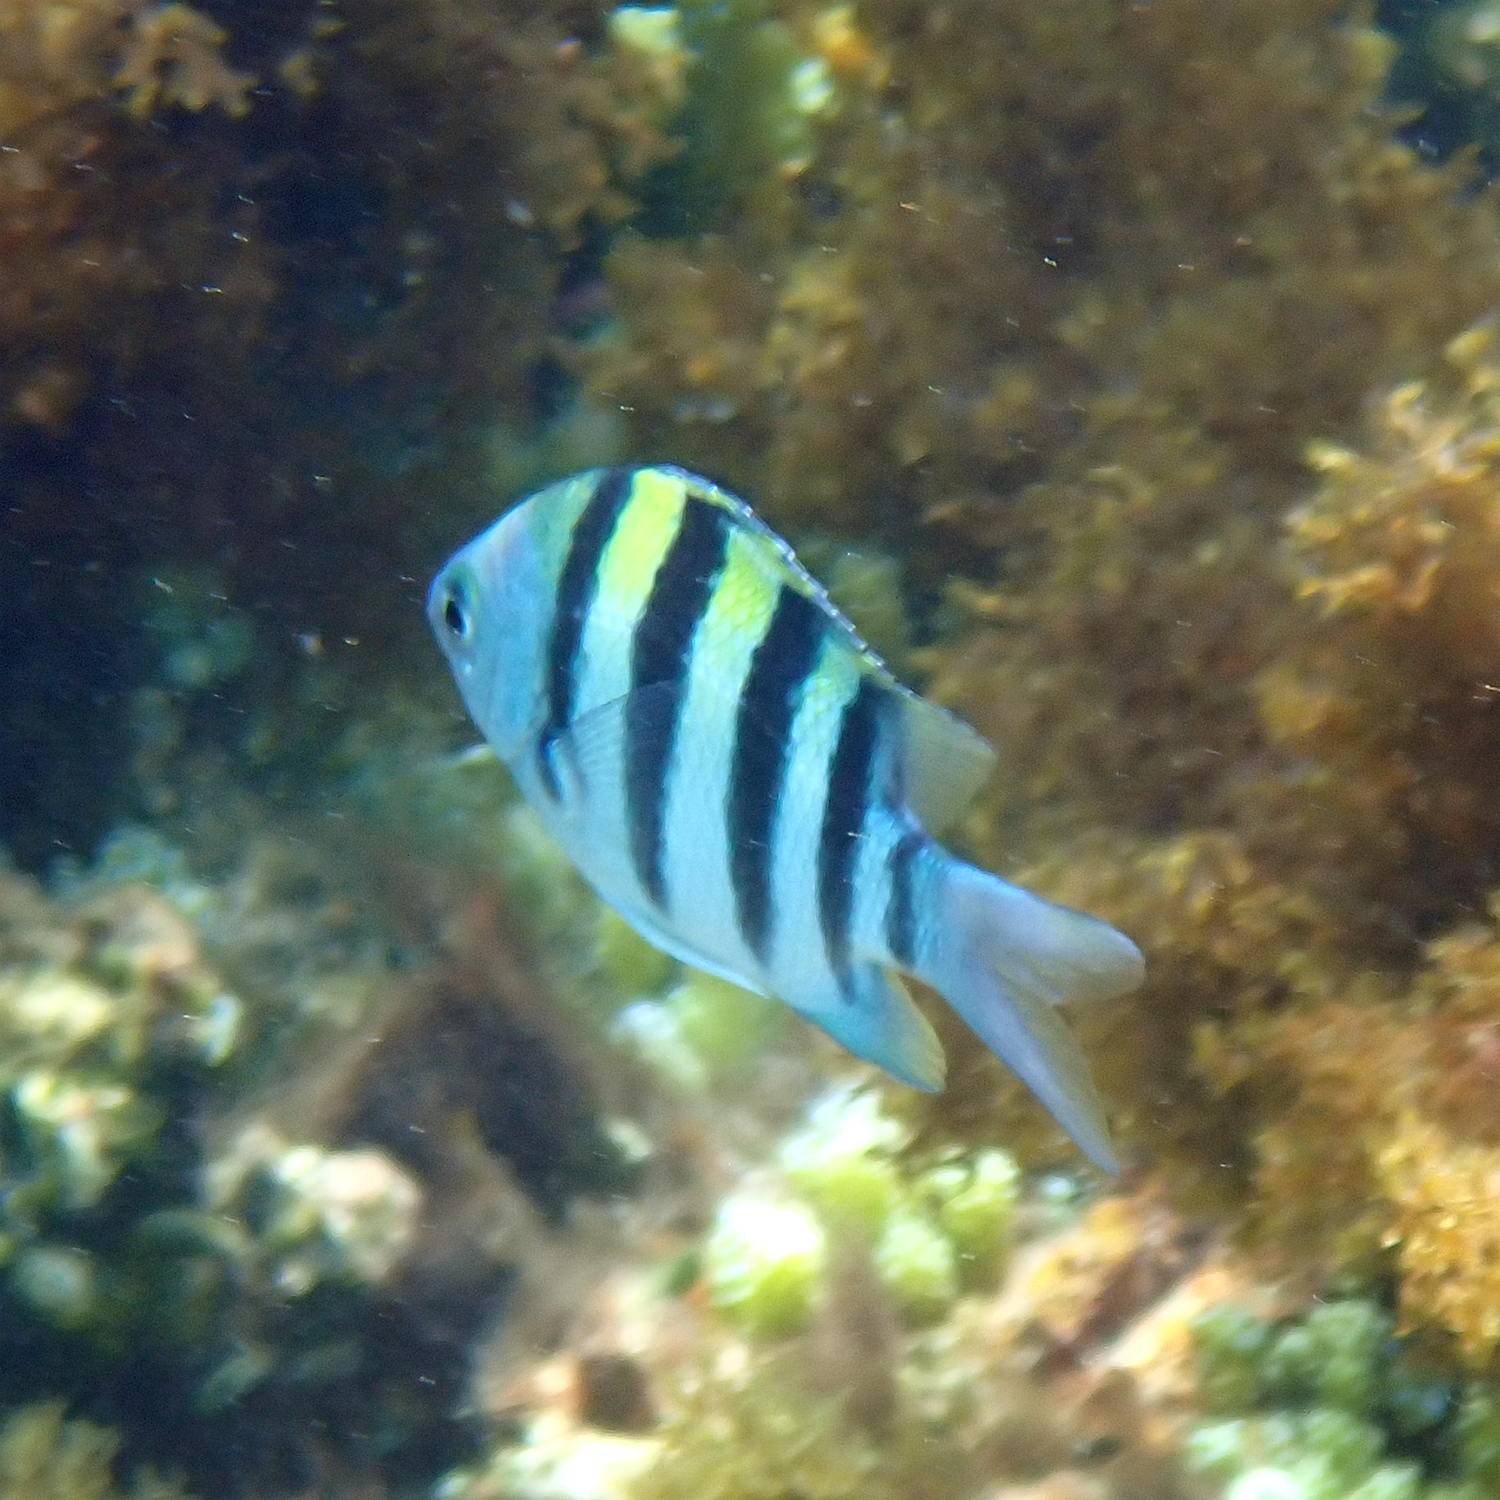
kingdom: Animalia
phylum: Chordata
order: Perciformes
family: Pomacentridae
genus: Abudefduf
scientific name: Abudefduf vaigiensis
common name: Indo-pacific sergeant
